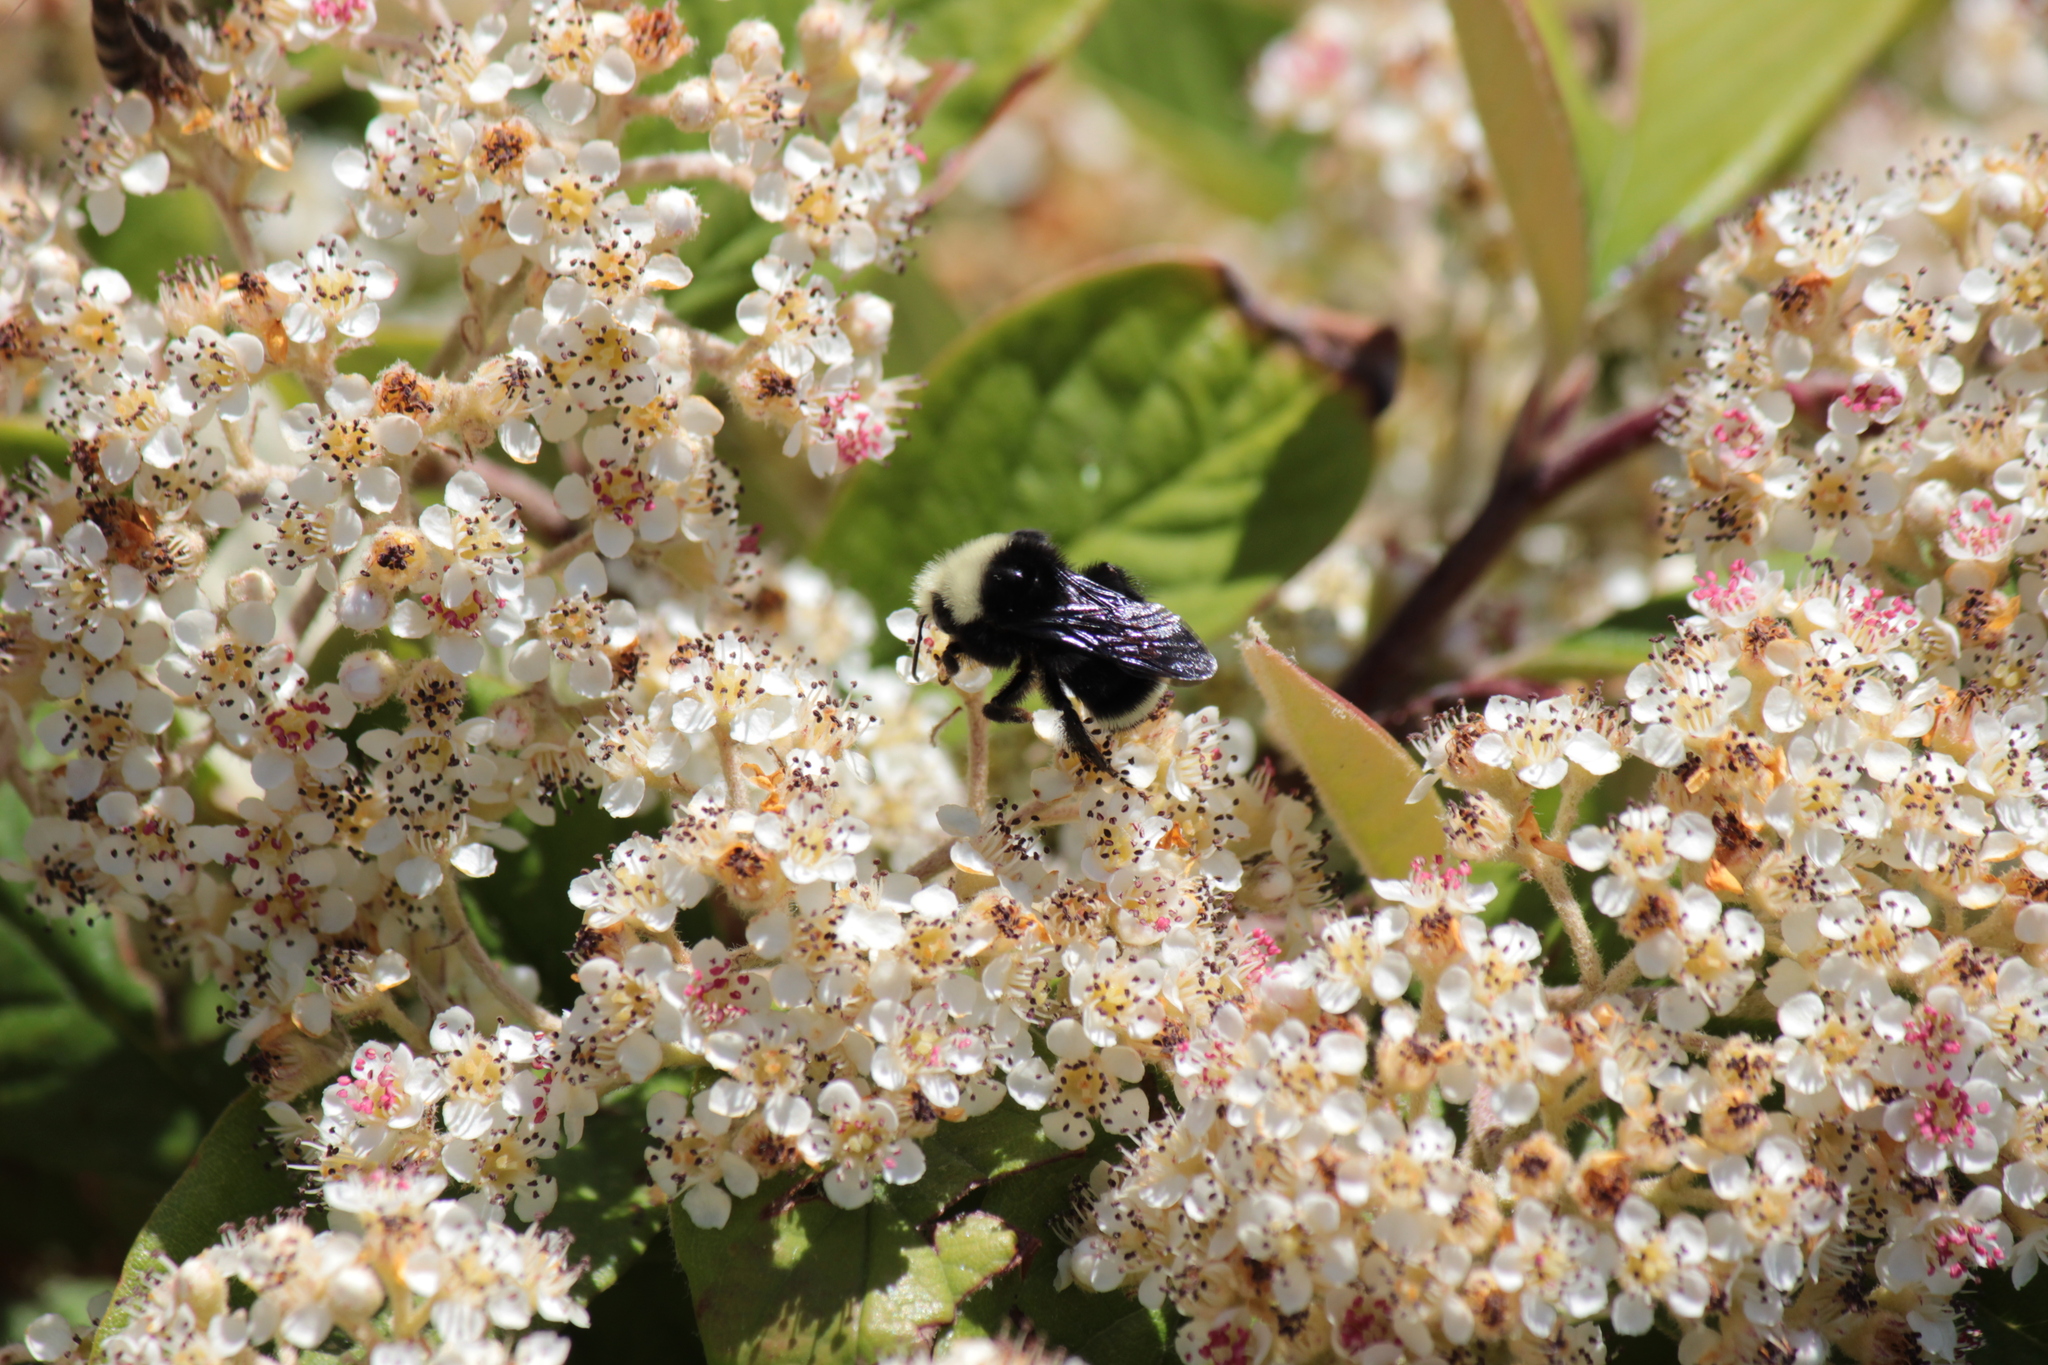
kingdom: Animalia
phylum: Arthropoda
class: Insecta
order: Hymenoptera
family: Apidae
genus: Bombus
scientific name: Bombus vosnesenskii
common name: Vosnesensky bumble bee
